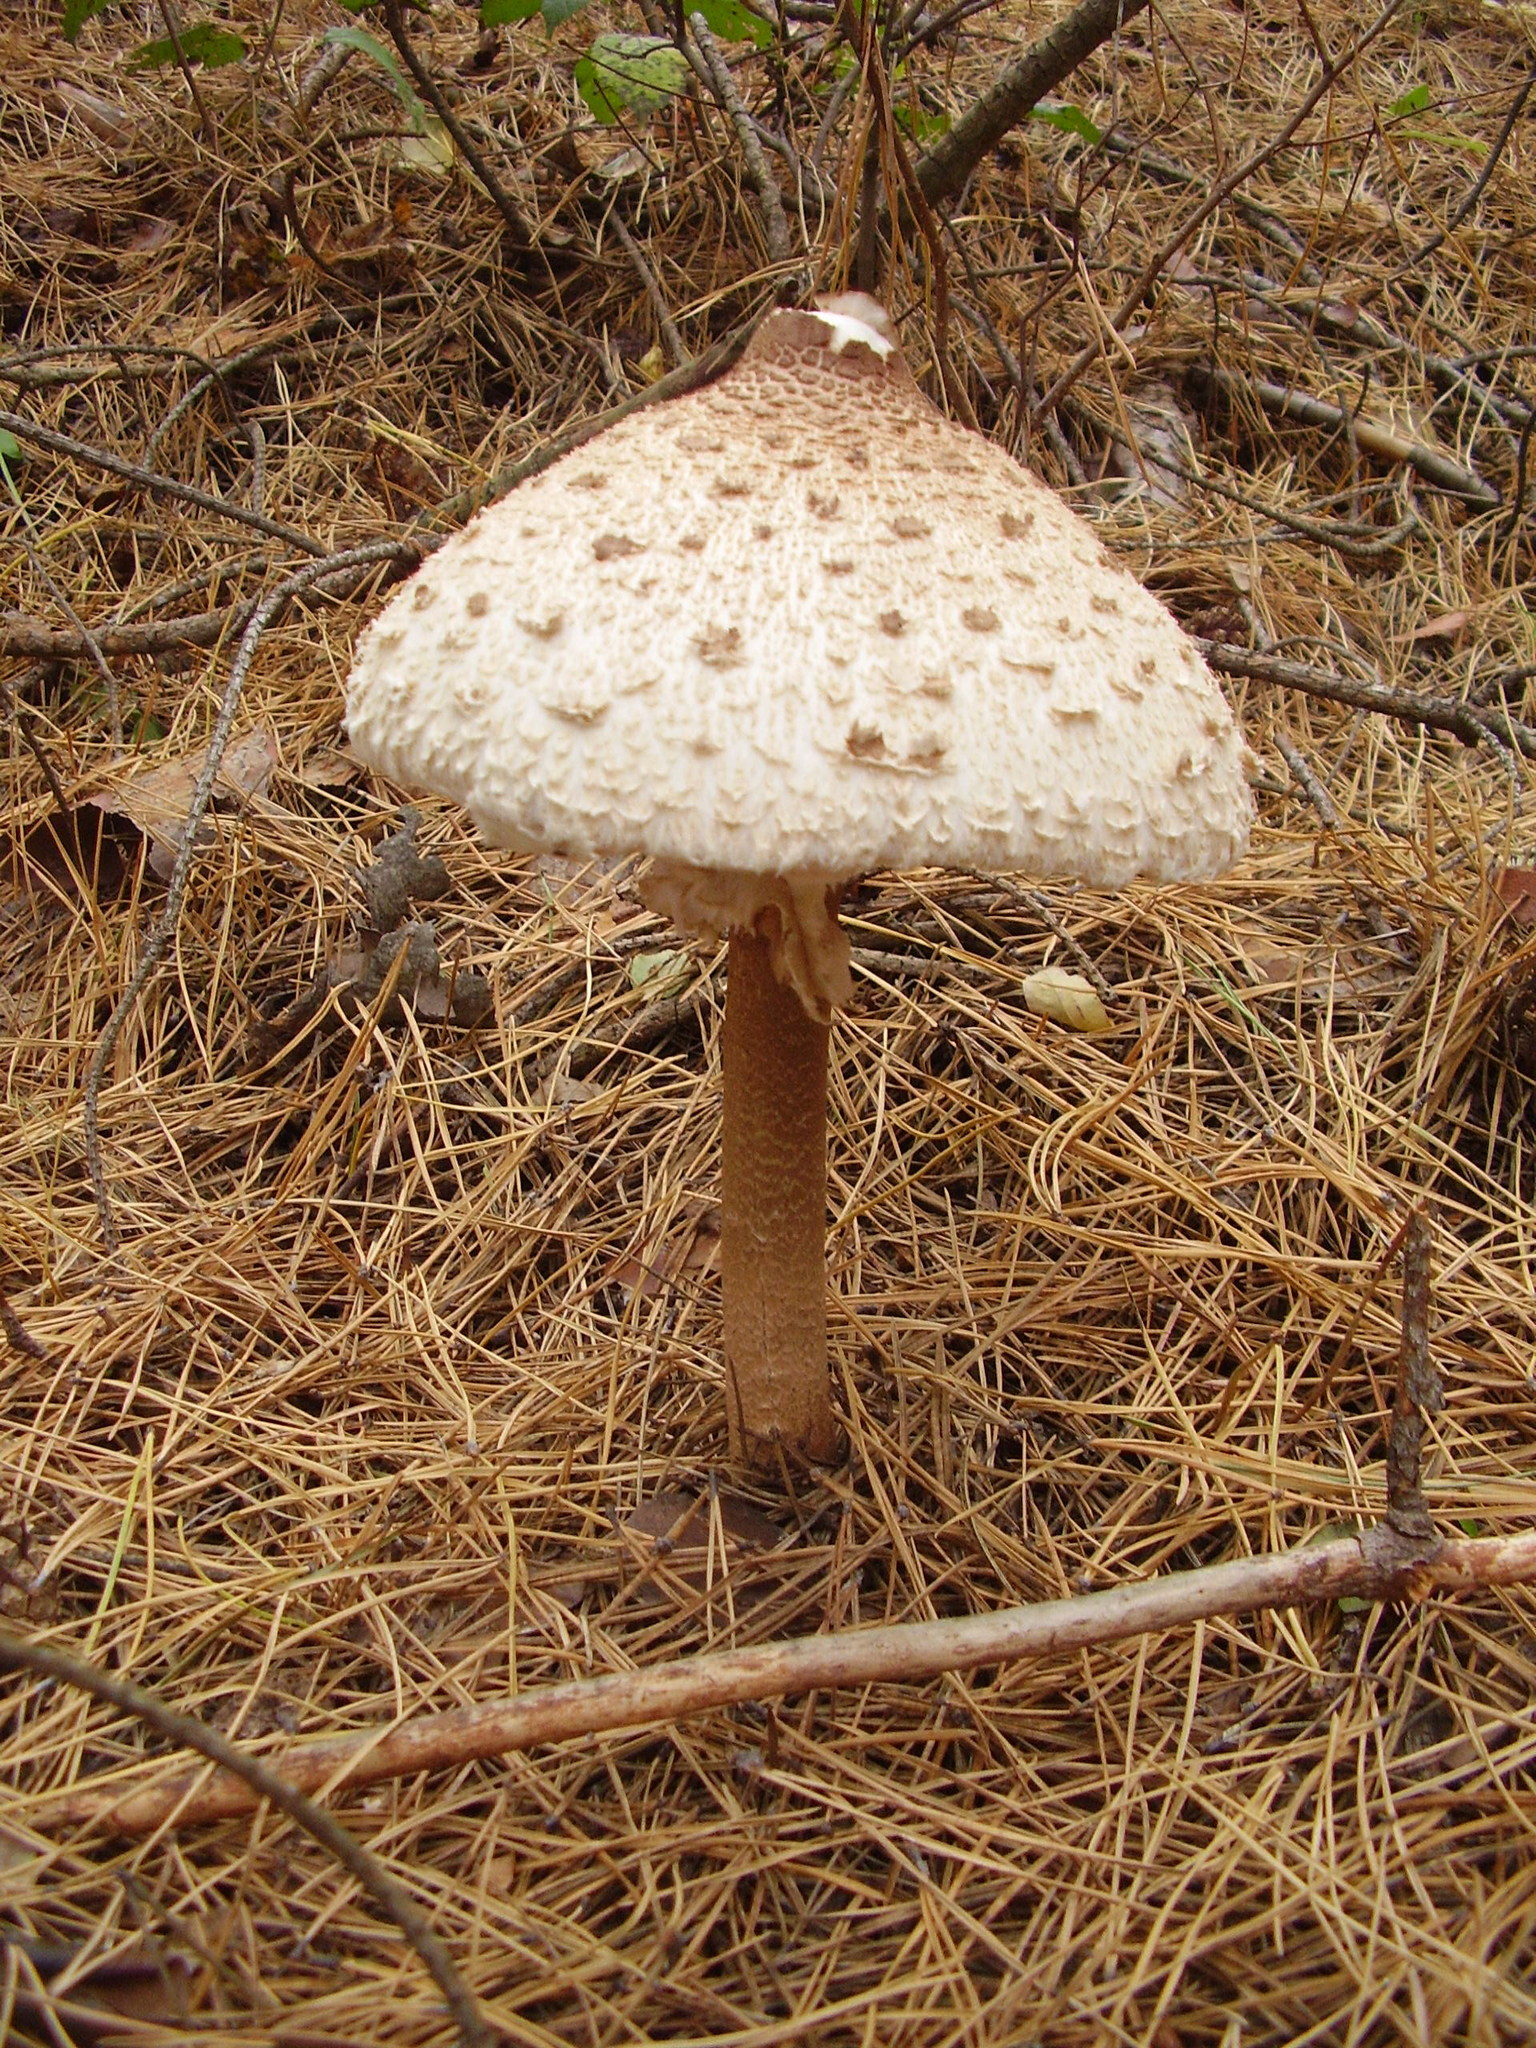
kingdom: Fungi
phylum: Basidiomycota
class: Agaricomycetes
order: Agaricales
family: Agaricaceae
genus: Macrolepiota
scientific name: Macrolepiota procera
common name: Parasol
